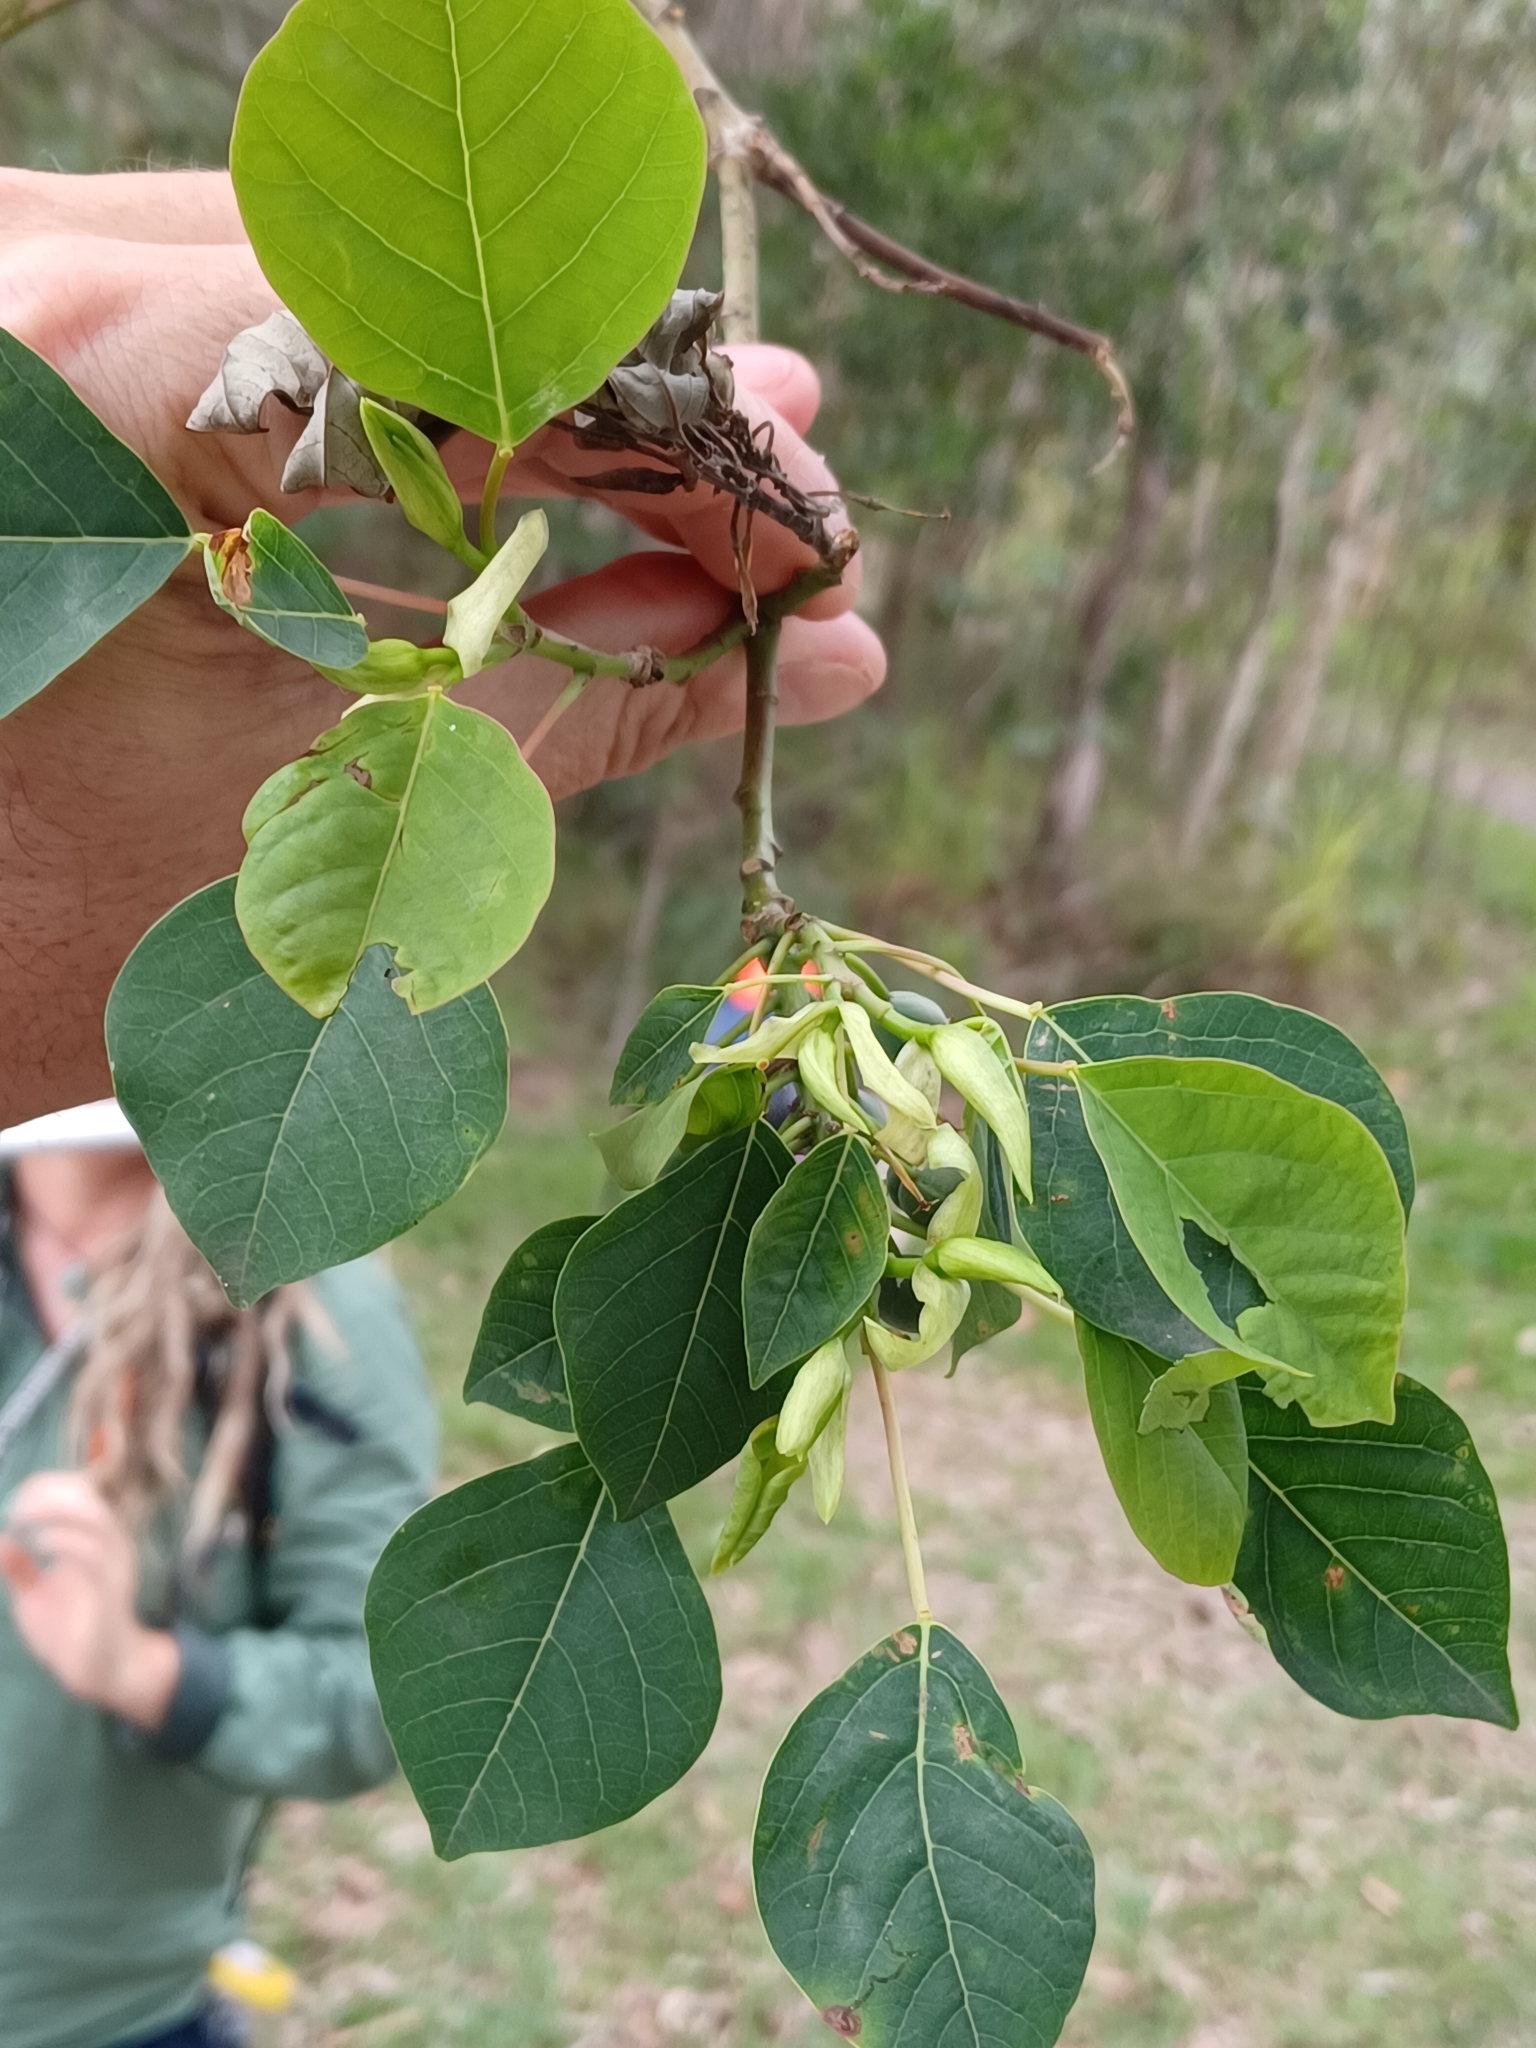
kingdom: Plantae
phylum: Tracheophyta
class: Magnoliopsida
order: Malpighiales
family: Euphorbiaceae
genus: Homalanthus
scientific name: Homalanthus populifolius
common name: Queensland poplar
